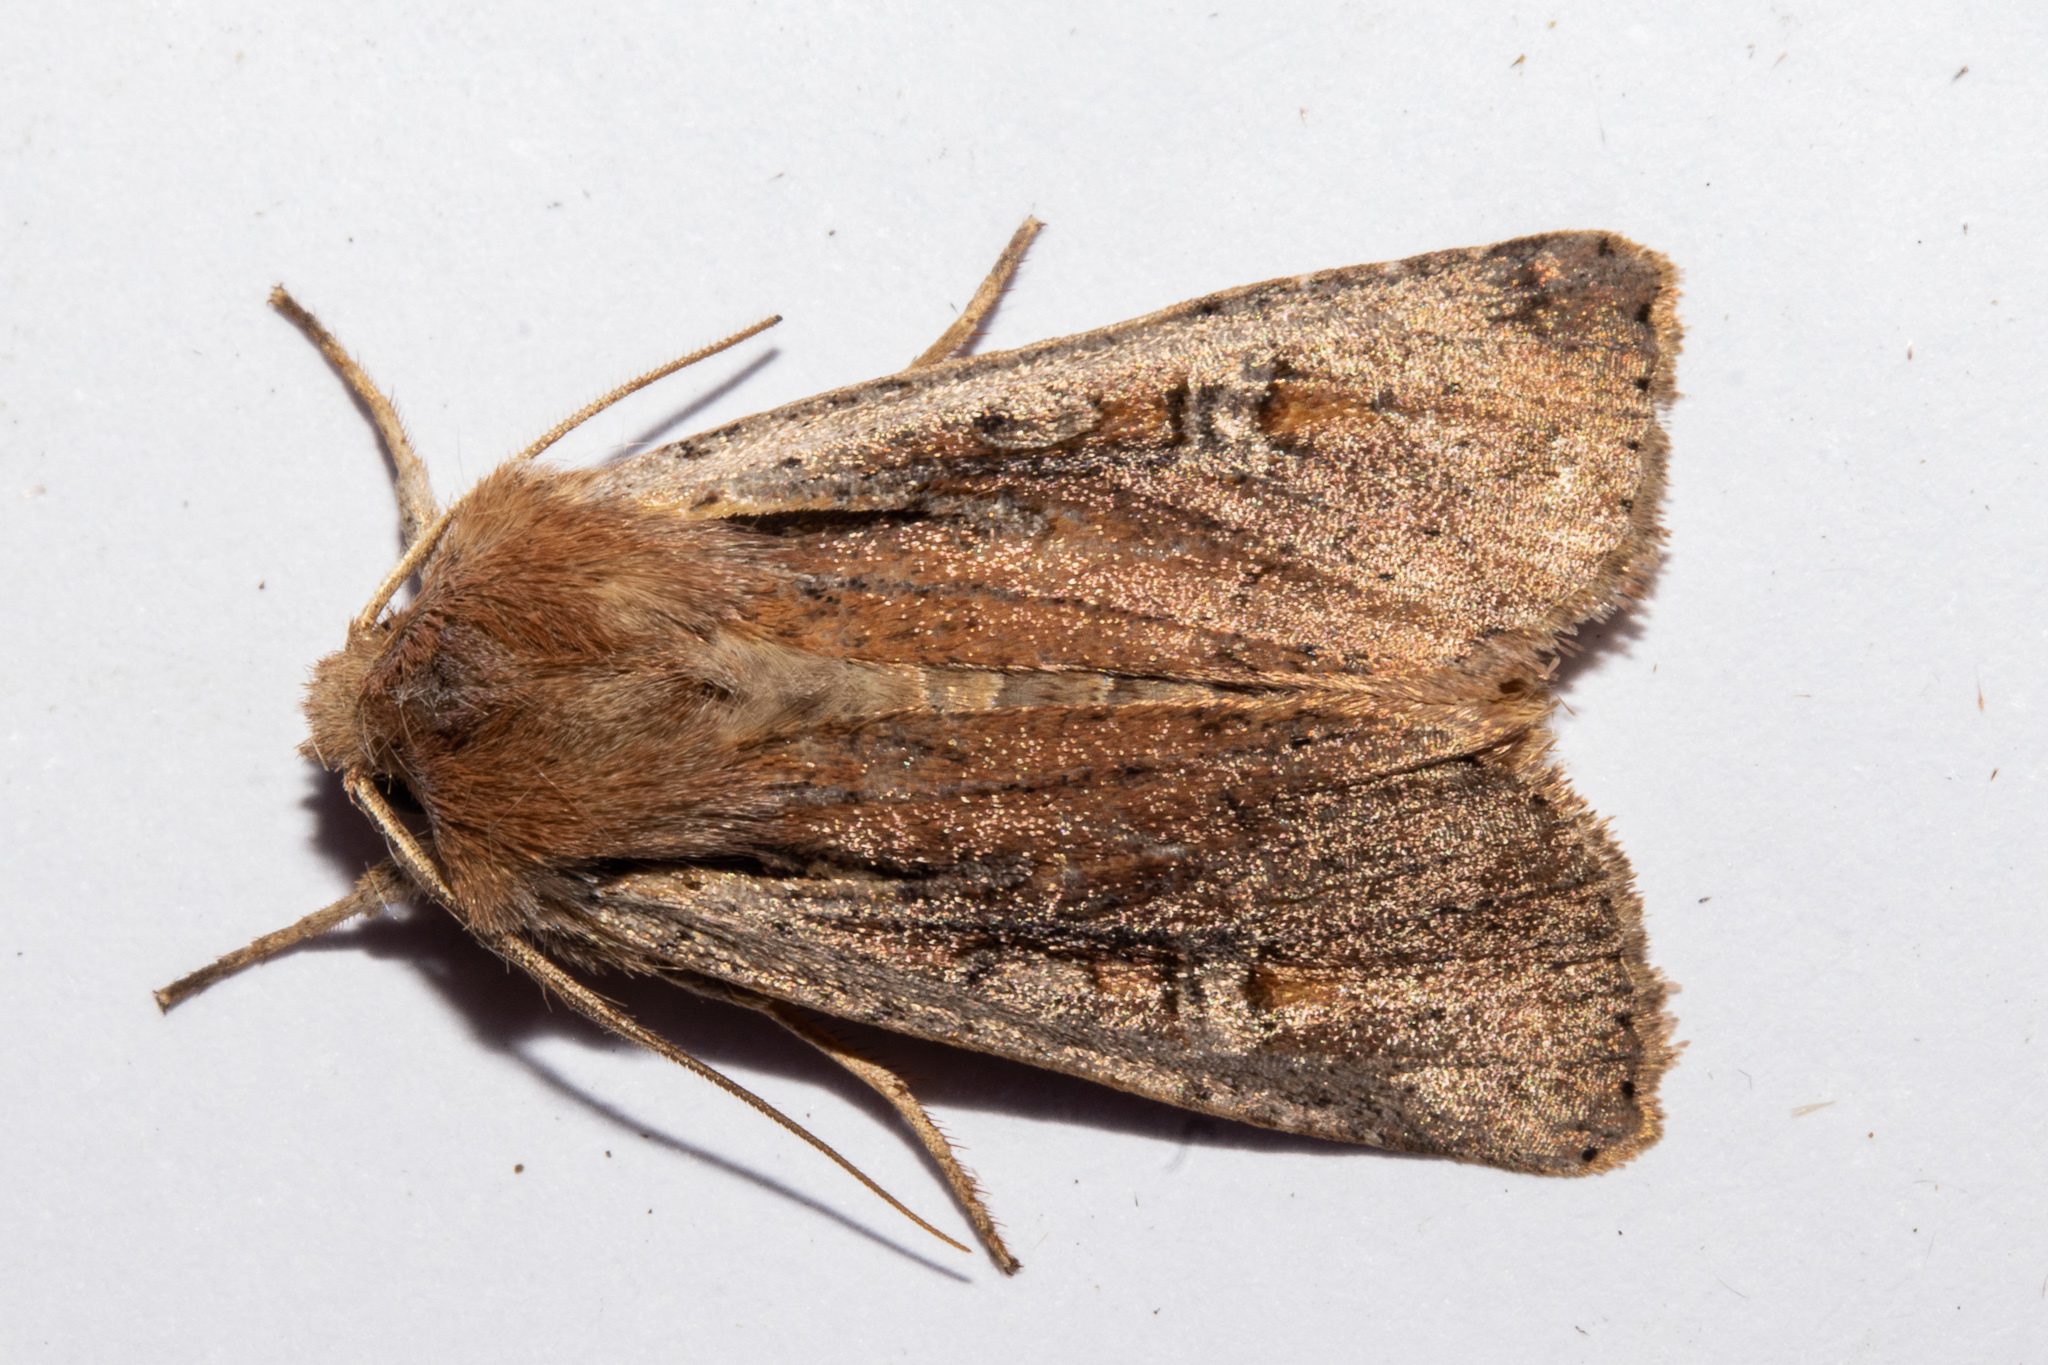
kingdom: Animalia
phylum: Arthropoda
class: Insecta
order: Lepidoptera
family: Noctuidae
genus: Ichneutica
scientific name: Ichneutica atristriga
